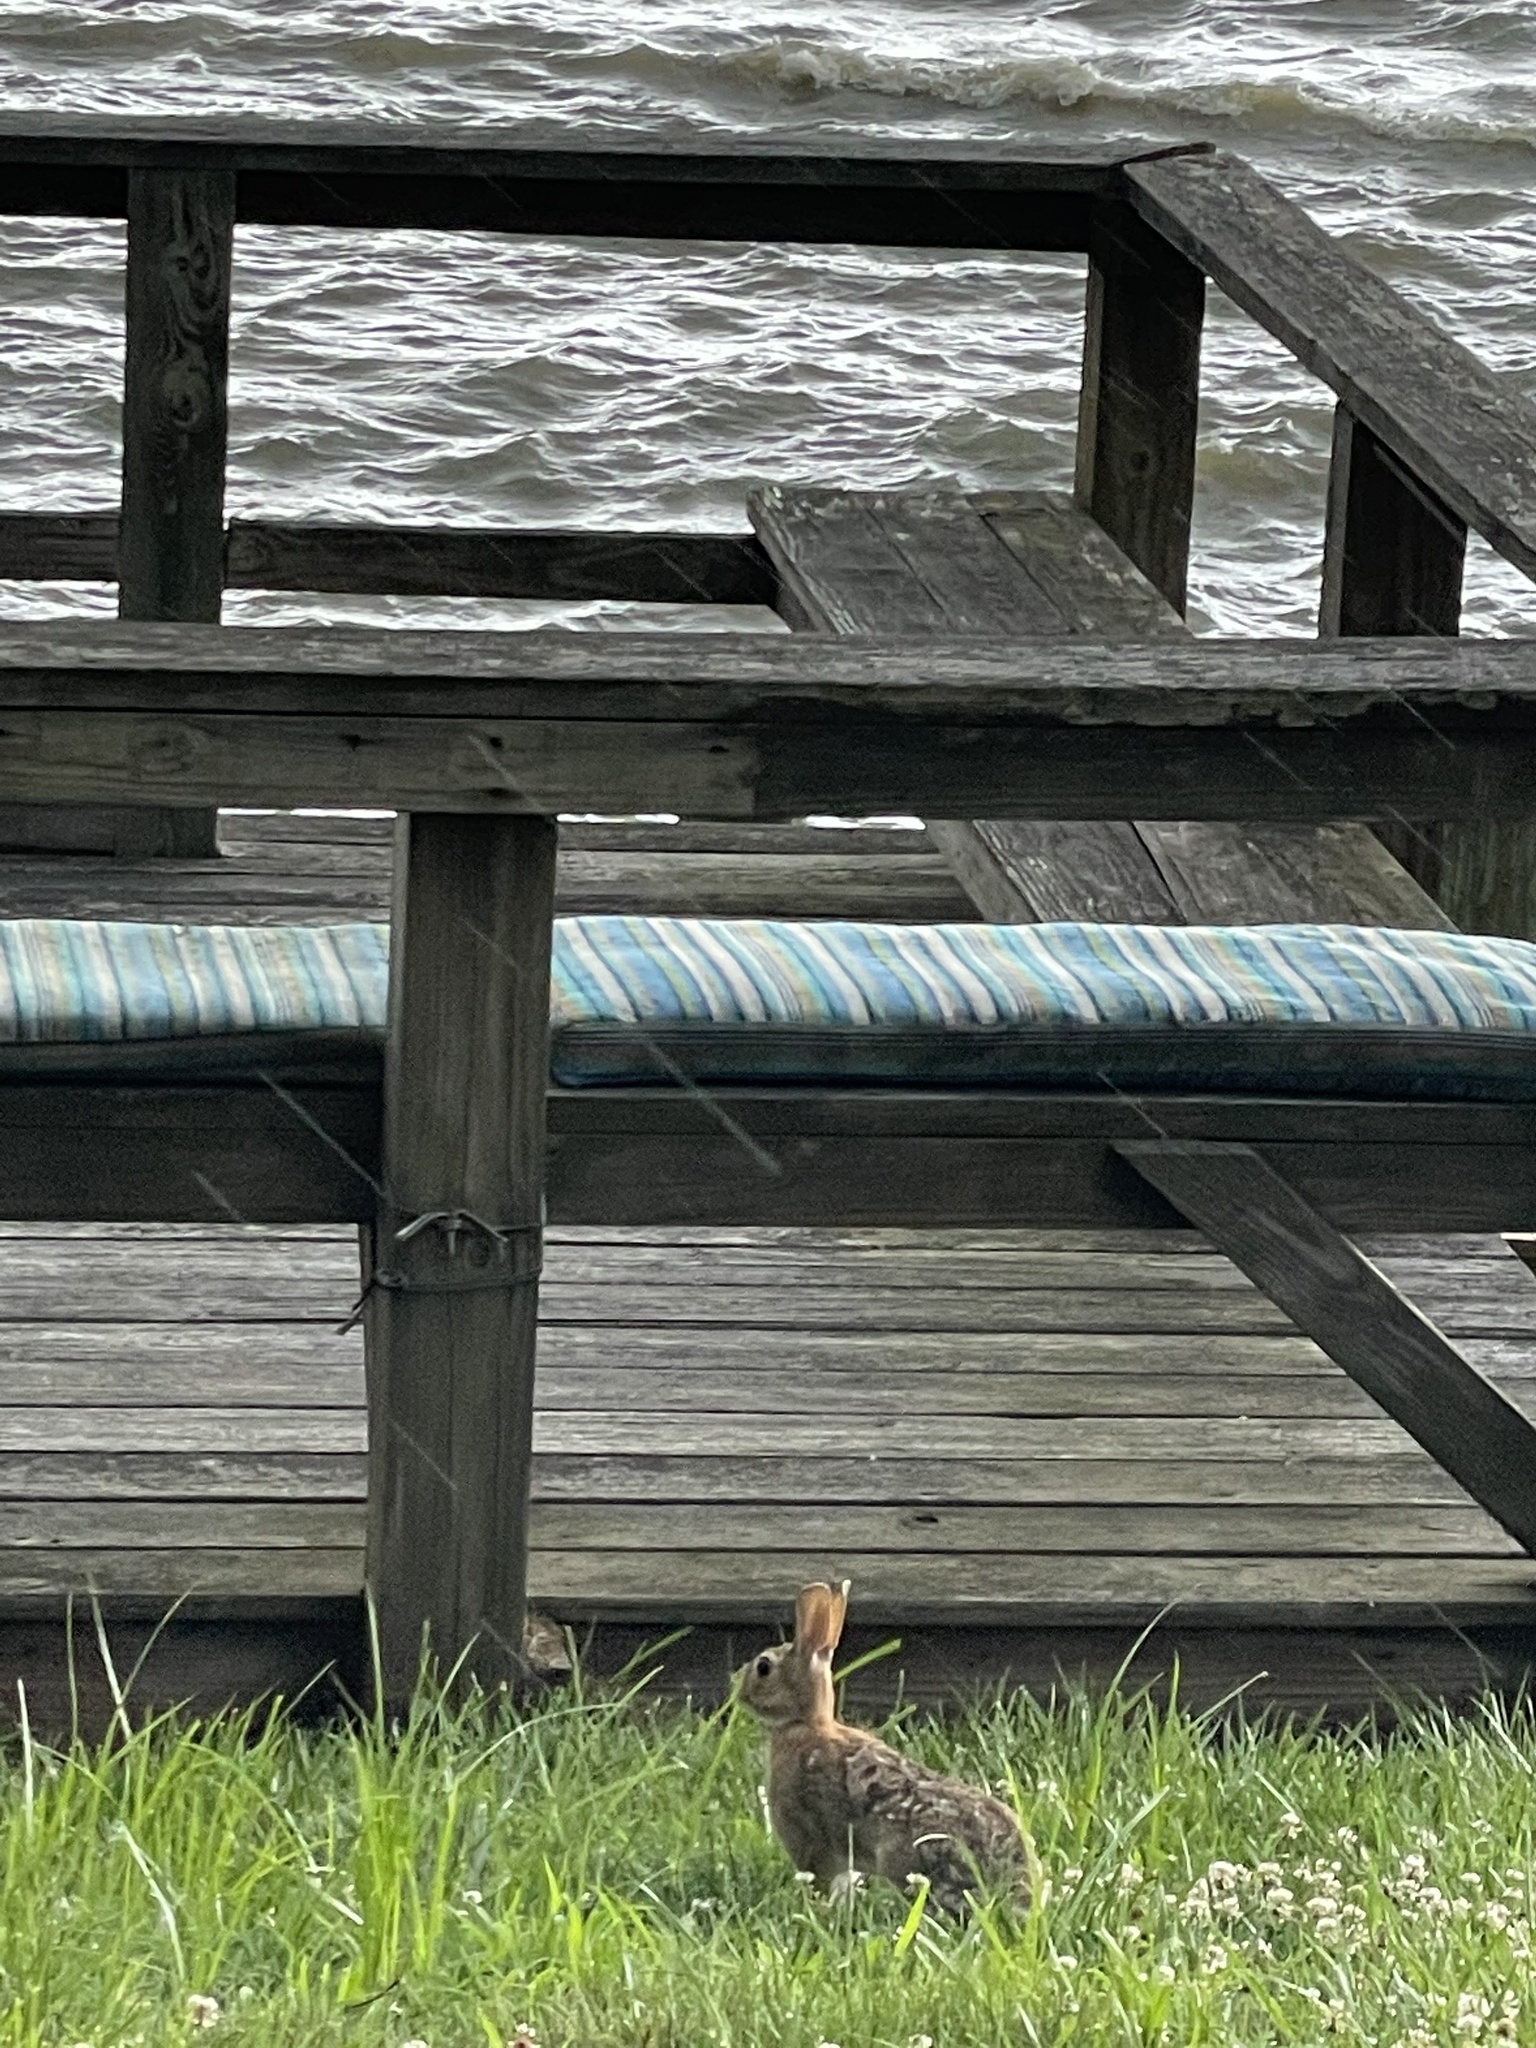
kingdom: Animalia
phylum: Chordata
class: Mammalia
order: Lagomorpha
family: Leporidae
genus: Sylvilagus
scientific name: Sylvilagus floridanus
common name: Eastern cottontail
